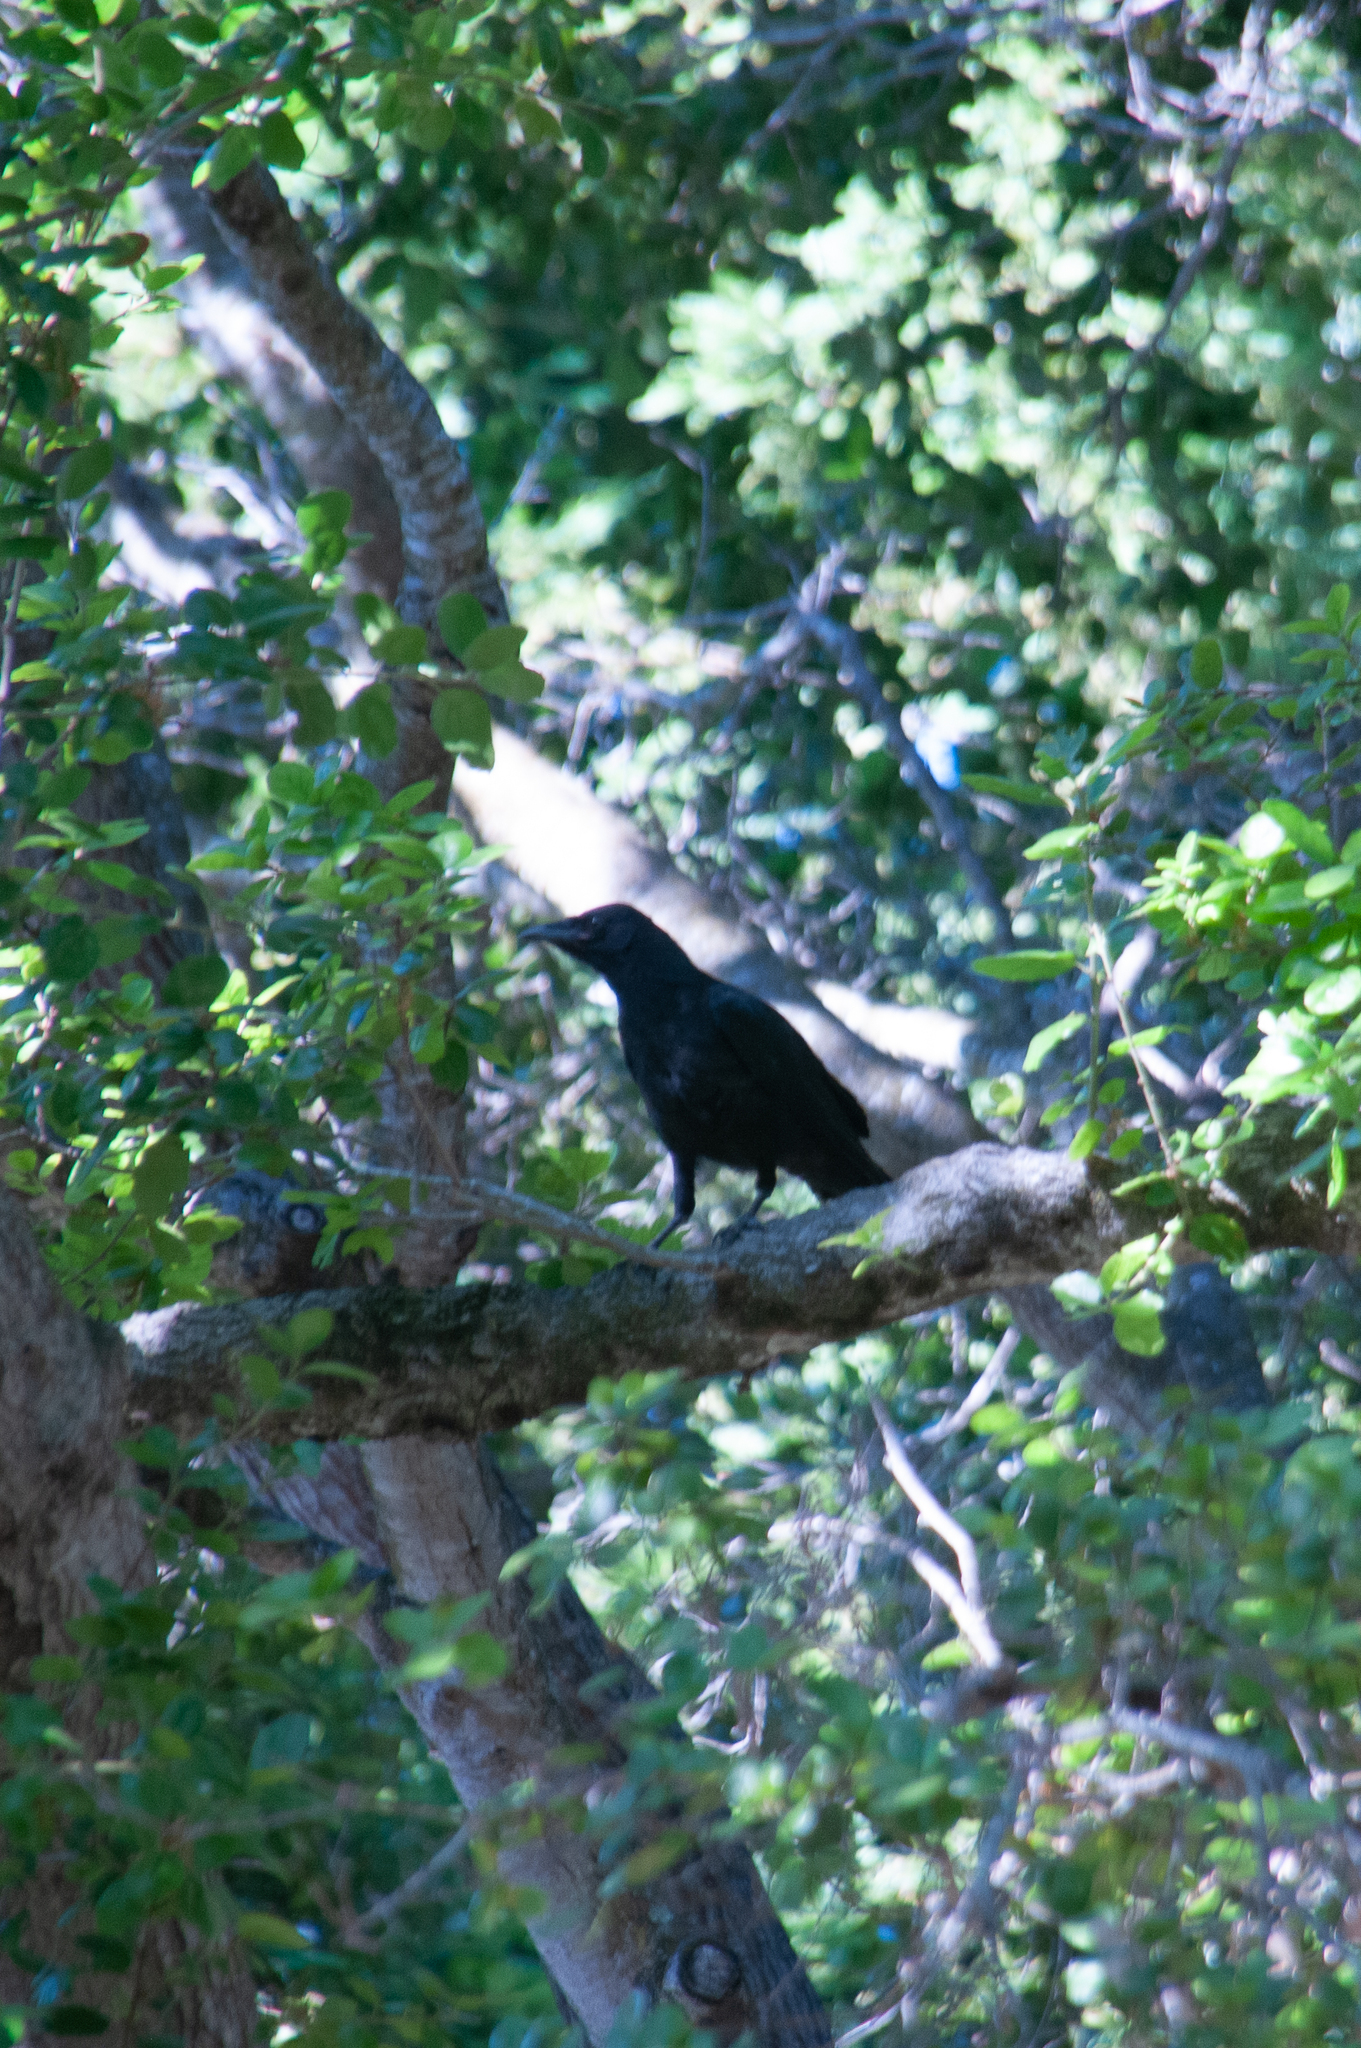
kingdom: Animalia
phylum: Chordata
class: Aves
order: Passeriformes
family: Corvidae
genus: Corvus
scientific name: Corvus brachyrhynchos
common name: American crow
